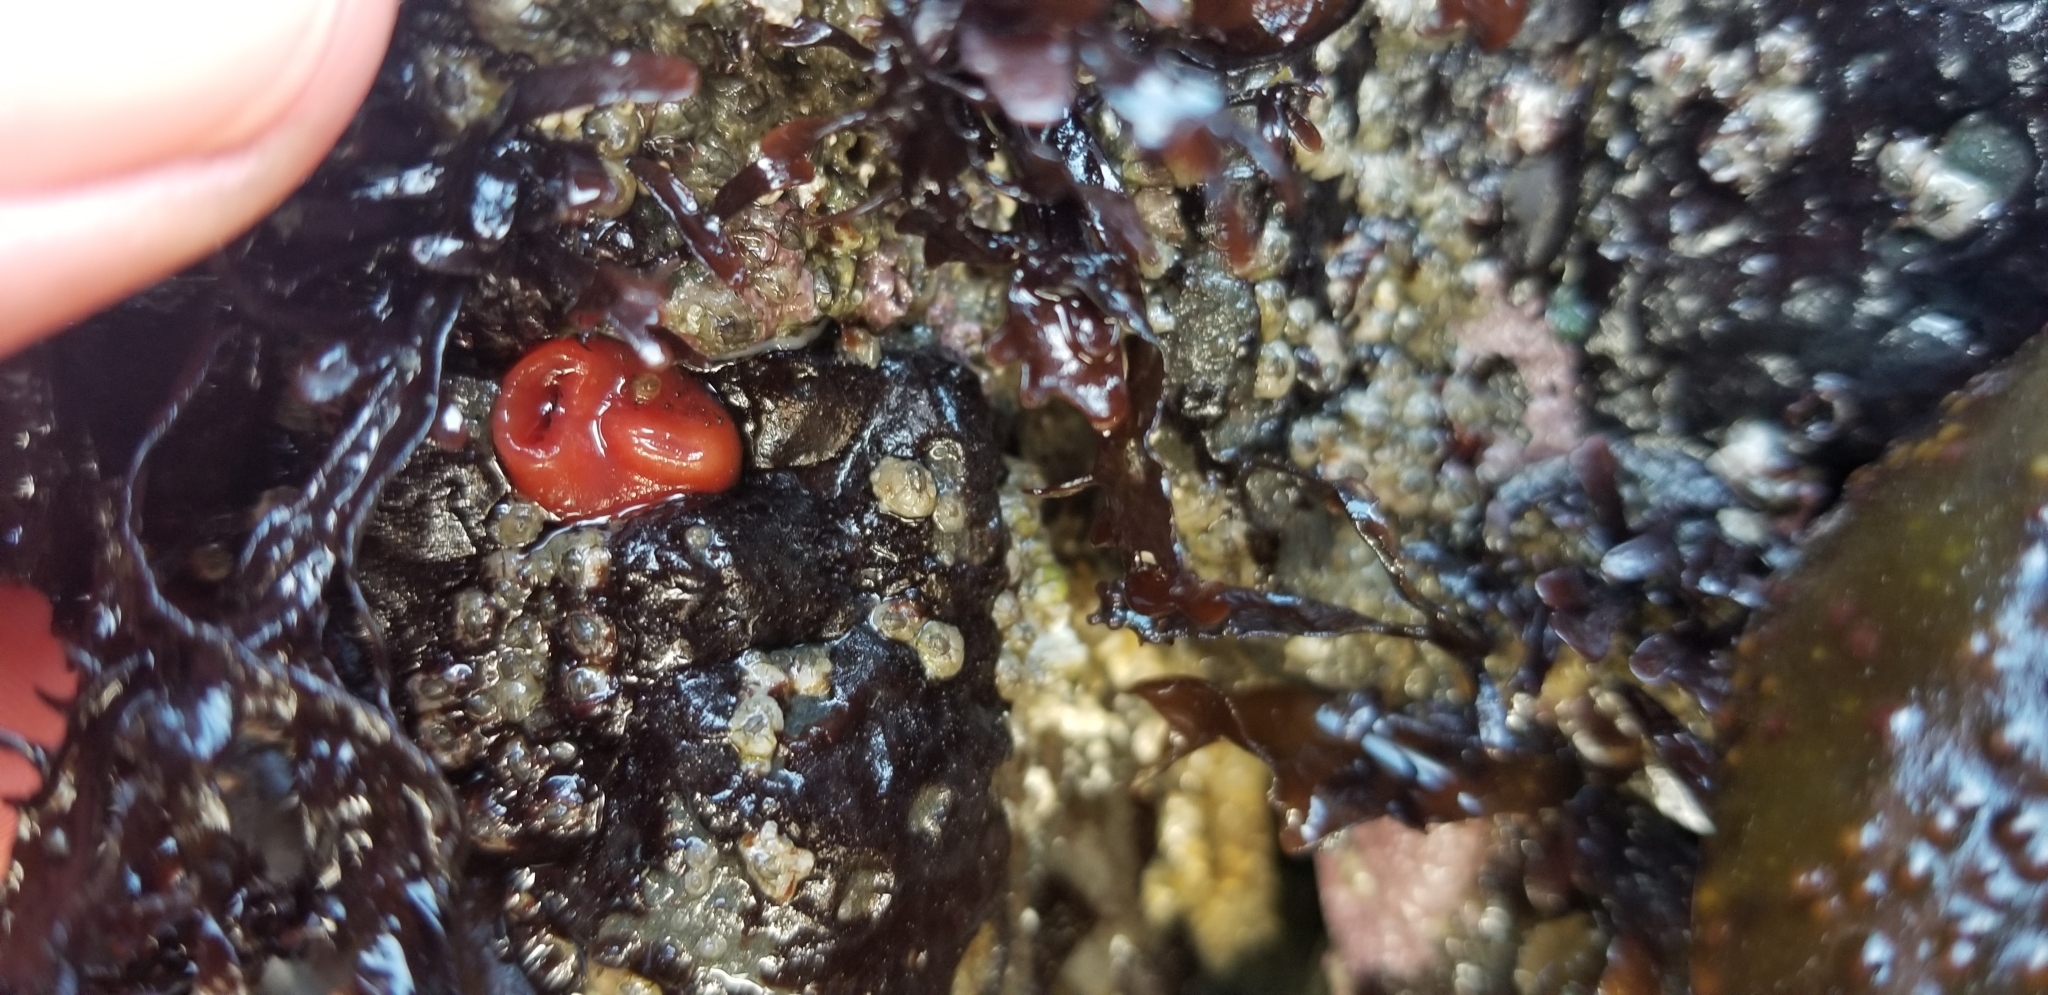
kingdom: Animalia
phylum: Mollusca
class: Bivalvia
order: Adapedonta
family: Hiatellidae
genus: Hiatella
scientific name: Hiatella arctica
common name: Arctic hiatella
